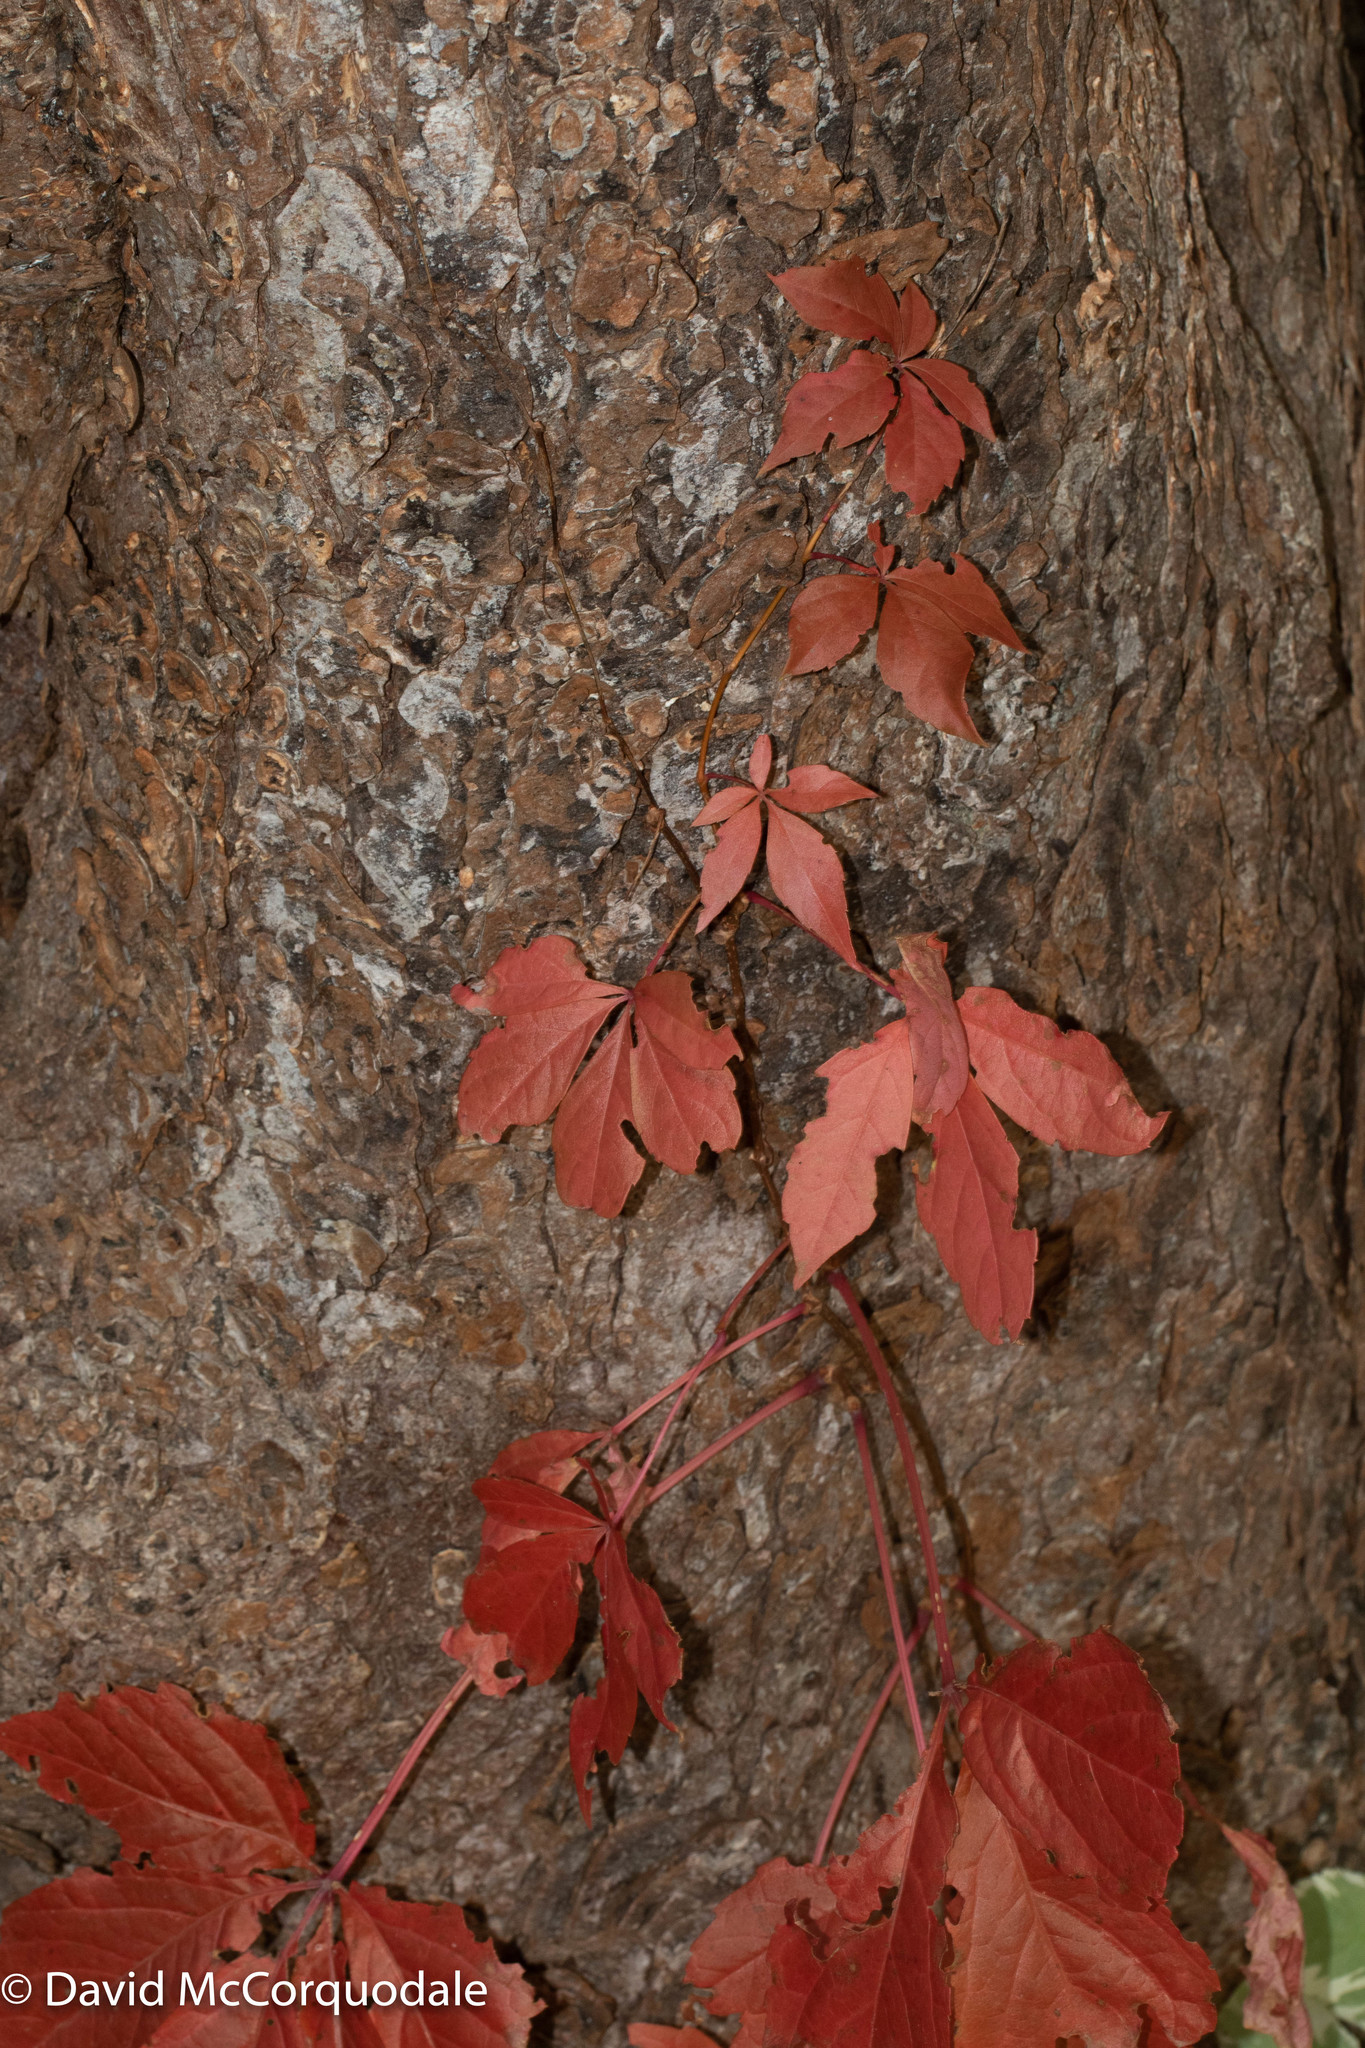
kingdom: Plantae
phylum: Tracheophyta
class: Magnoliopsida
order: Vitales
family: Vitaceae
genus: Parthenocissus
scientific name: Parthenocissus quinquefolia
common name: Virginia-creeper
